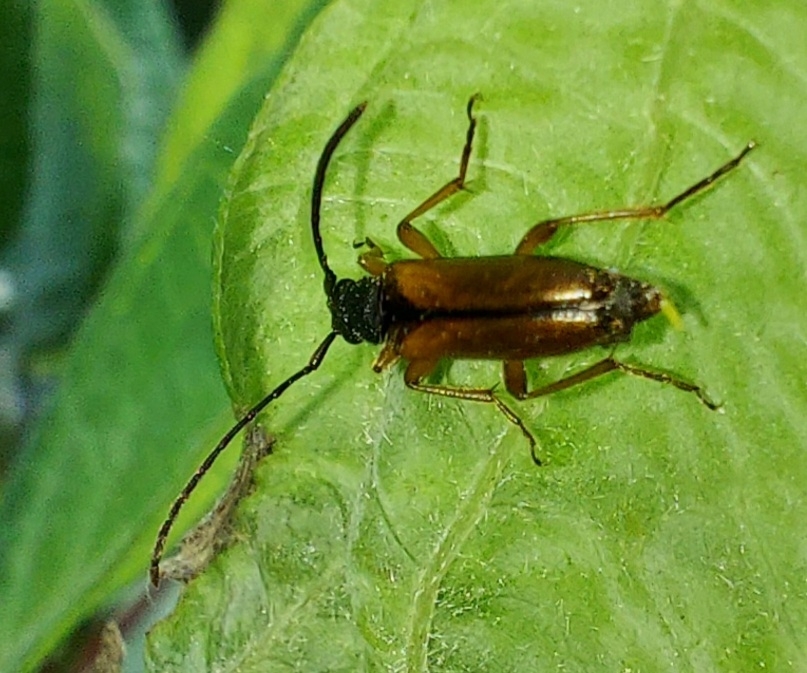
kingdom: Animalia
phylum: Arthropoda
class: Insecta
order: Coleoptera
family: Cerambycidae
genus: Alosterna
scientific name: Alosterna tabacicolor
